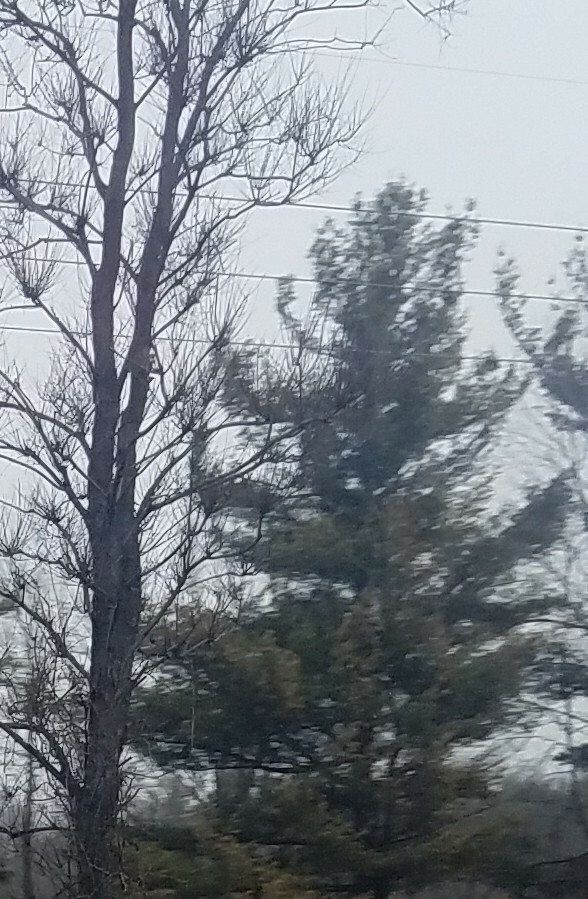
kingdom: Plantae
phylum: Tracheophyta
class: Pinopsida
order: Pinales
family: Pinaceae
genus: Pinus
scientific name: Pinus strobus
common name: Weymouth pine
